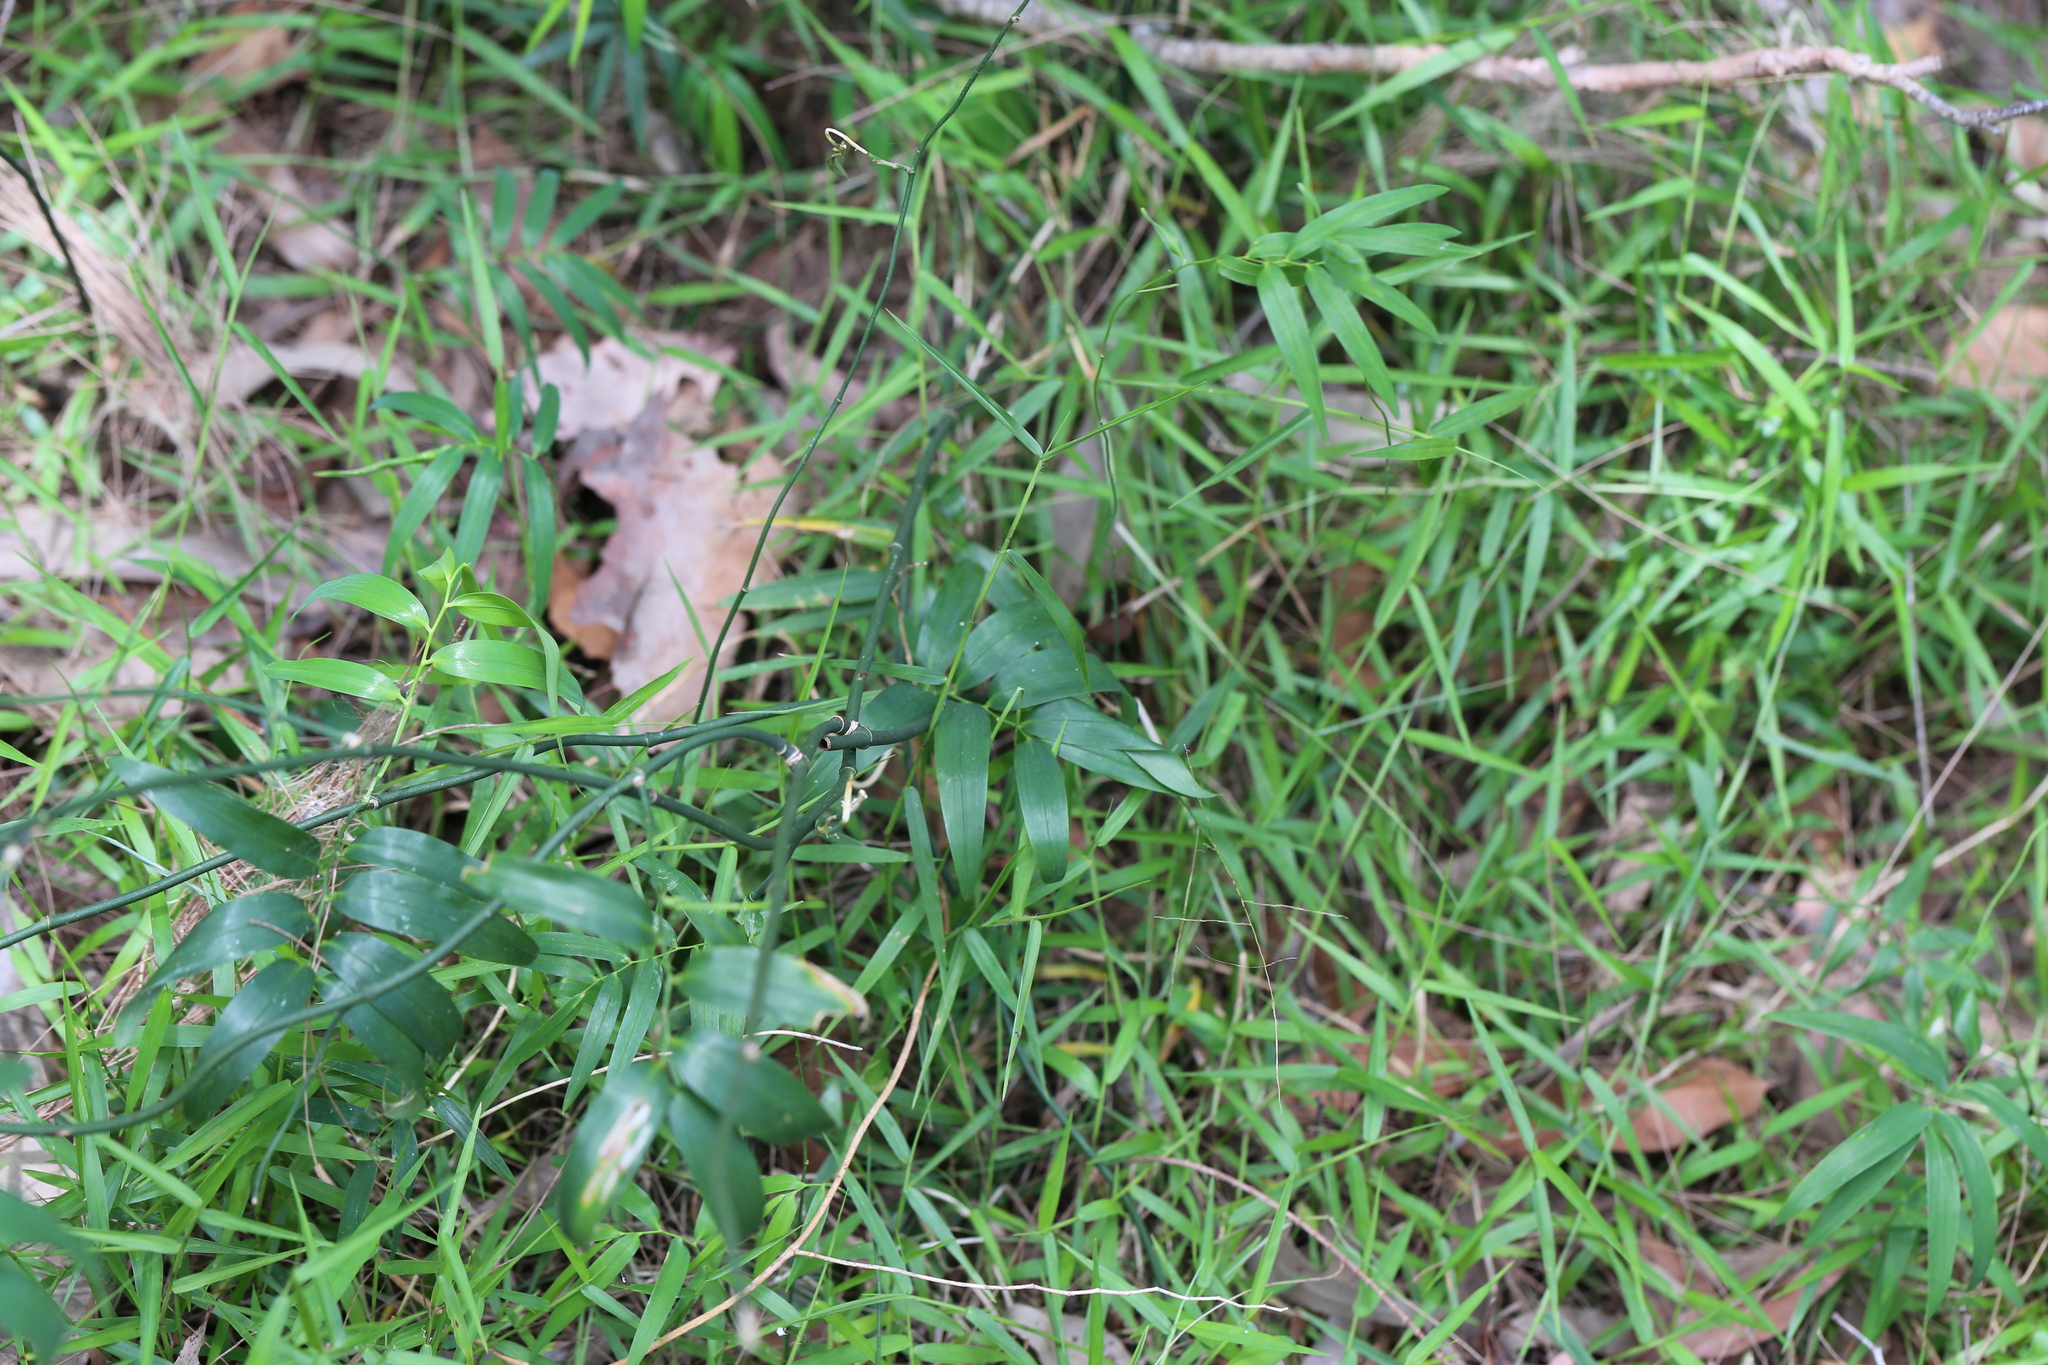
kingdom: Plantae
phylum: Tracheophyta
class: Liliopsida
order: Asparagales
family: Asphodelaceae
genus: Geitonoplesium
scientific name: Geitonoplesium cymosum
